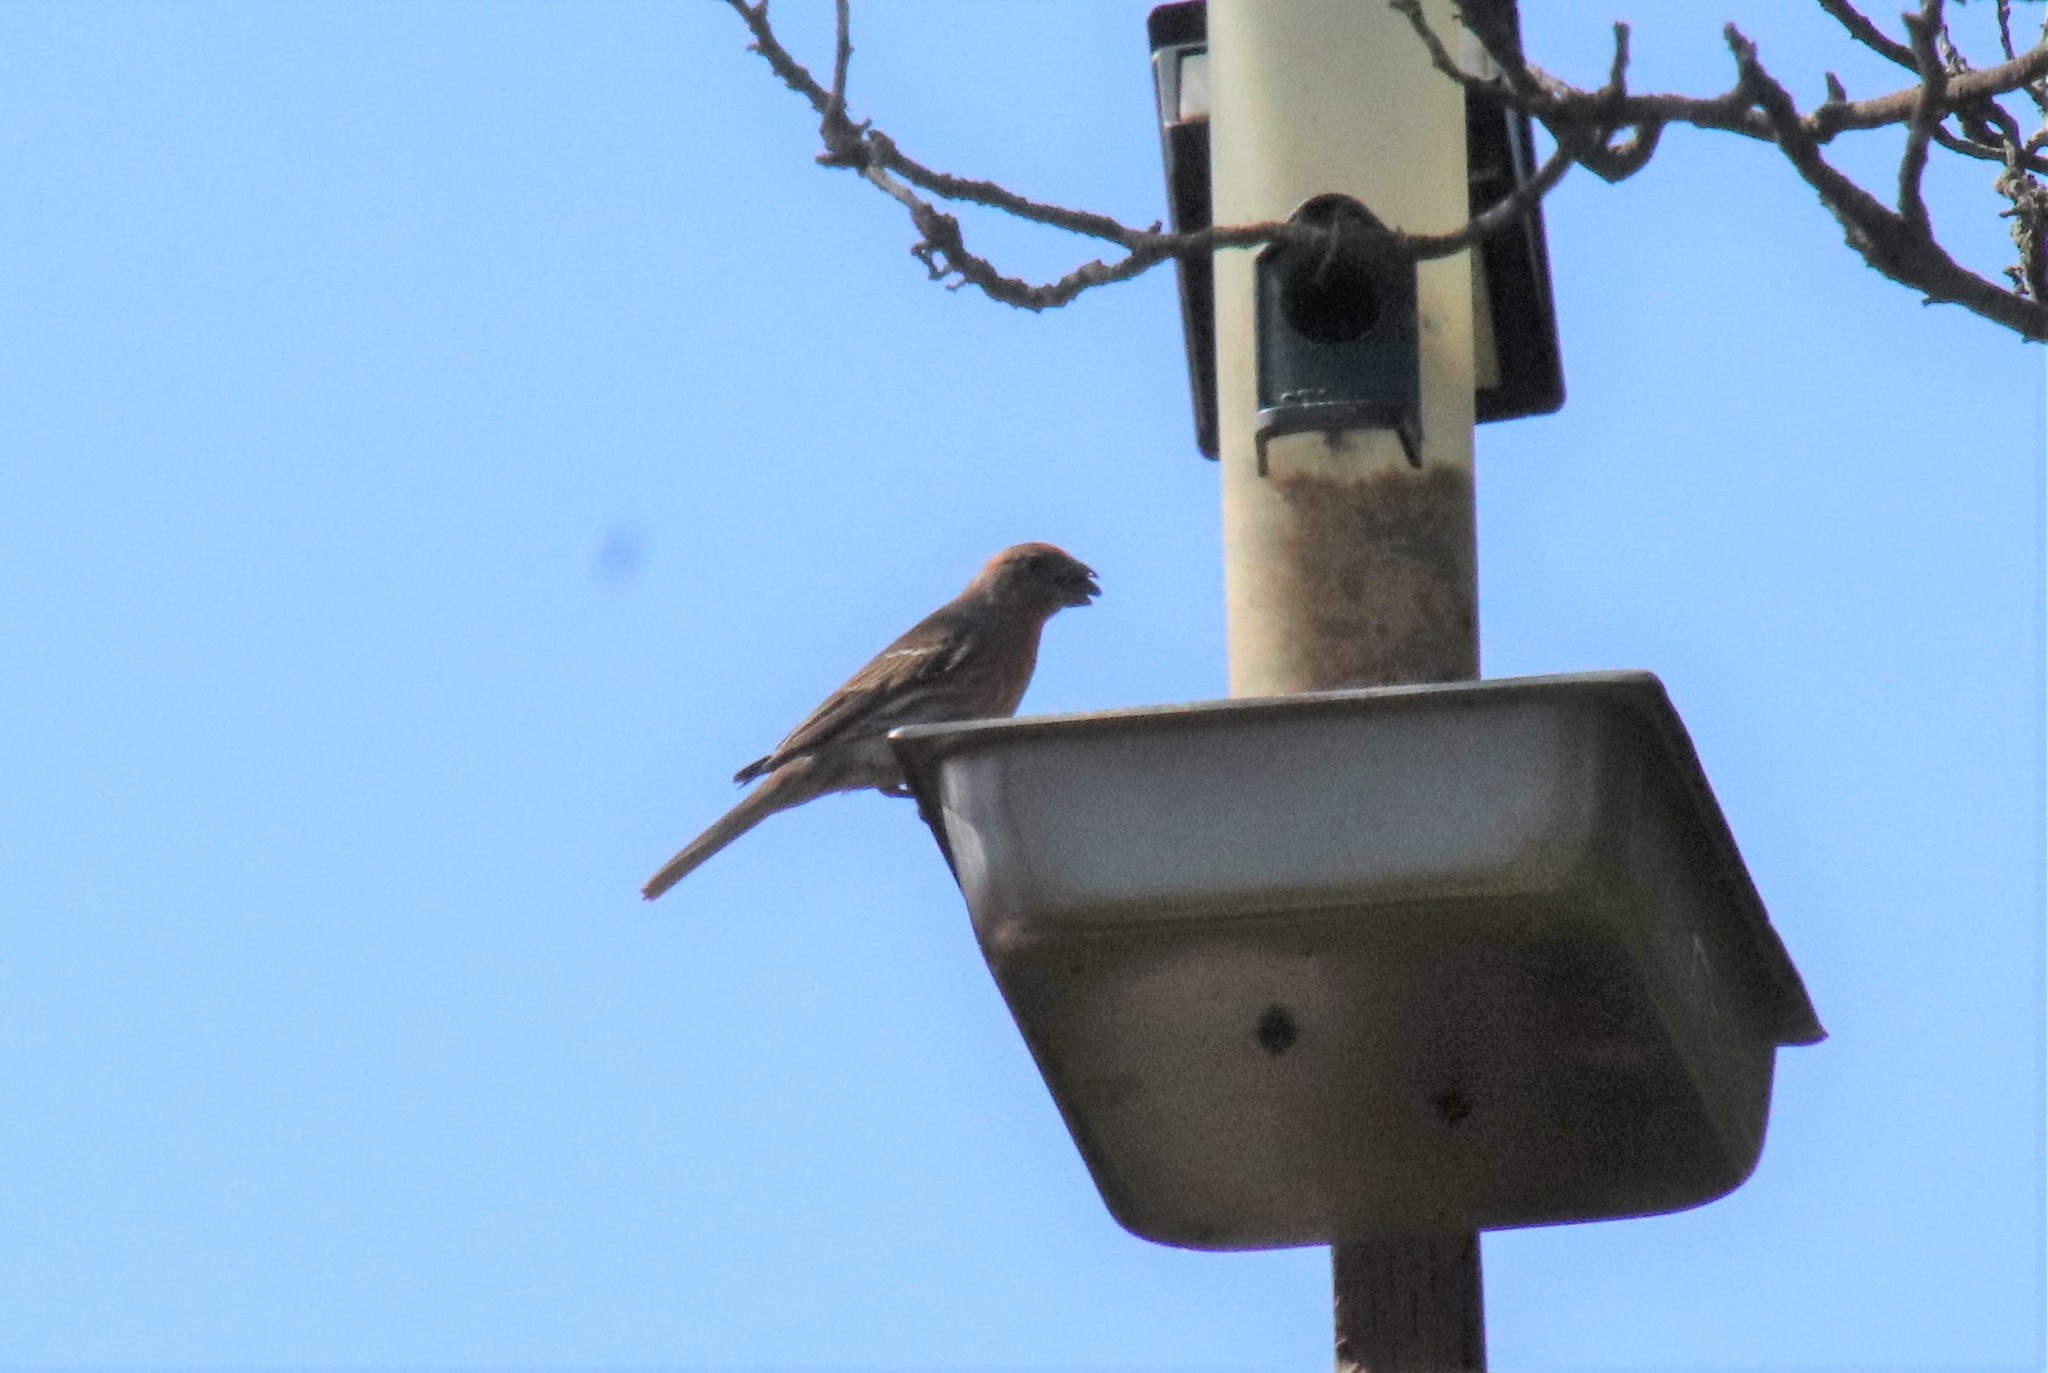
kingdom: Animalia
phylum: Chordata
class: Aves
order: Passeriformes
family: Fringillidae
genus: Haemorhous
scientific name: Haemorhous mexicanus
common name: House finch
